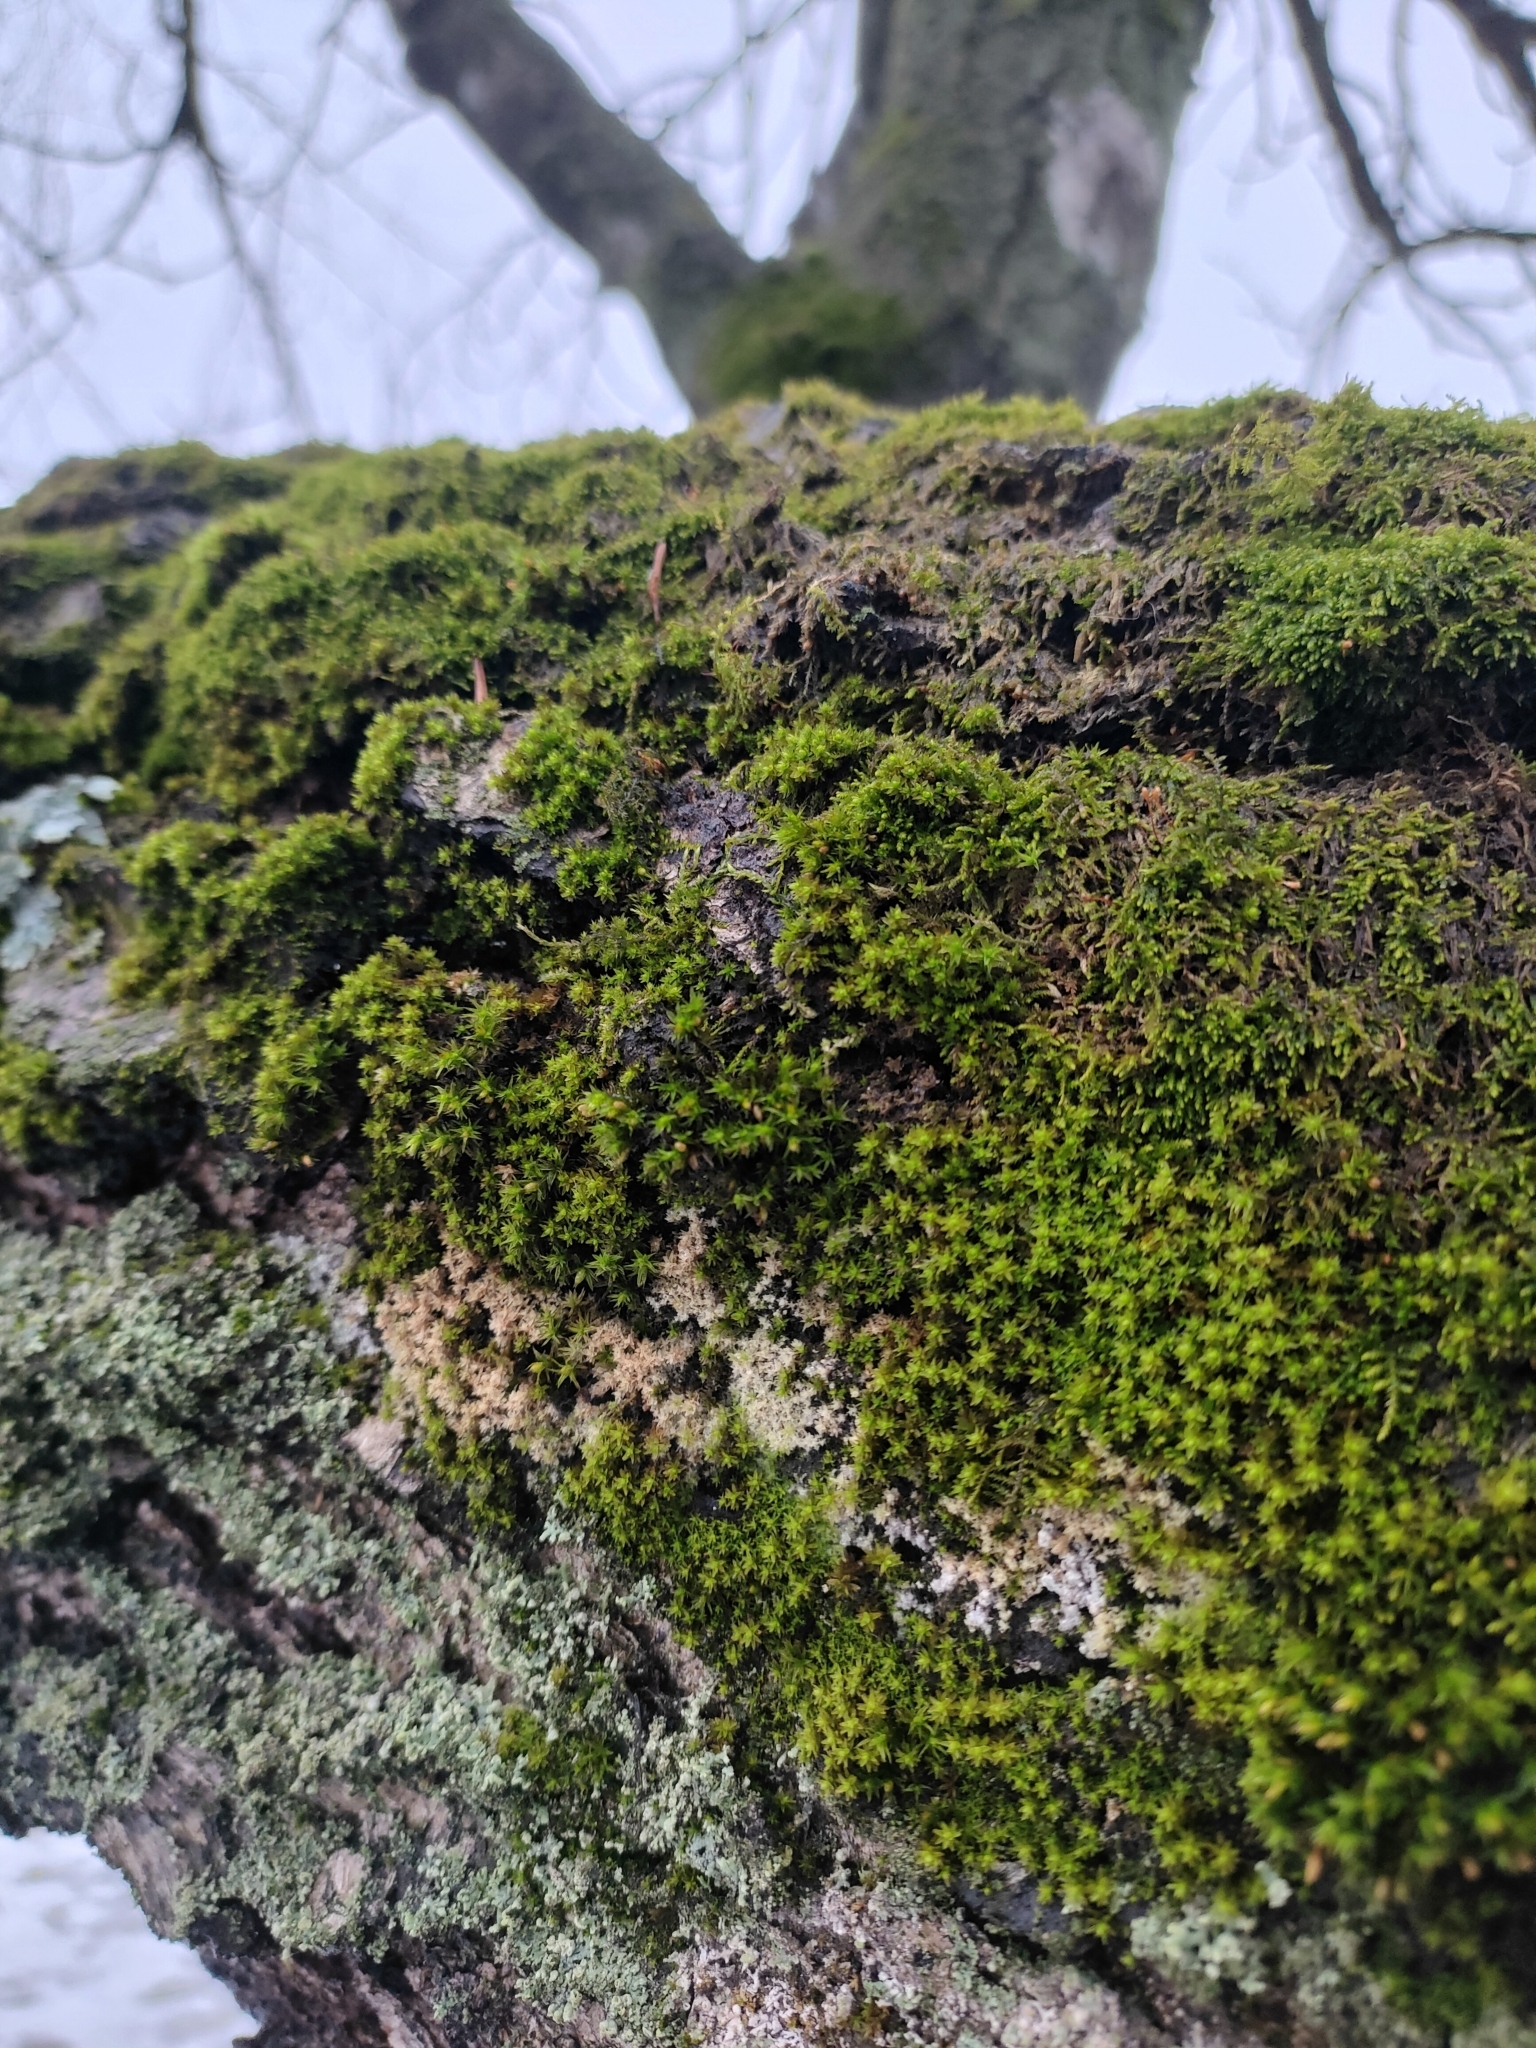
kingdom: Plantae
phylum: Bryophyta
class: Bryopsida
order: Orthotrichales
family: Orthotrichaceae
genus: Nyholmiella
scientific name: Nyholmiella obtusifolia
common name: Blunt-leaved bristle-moss
